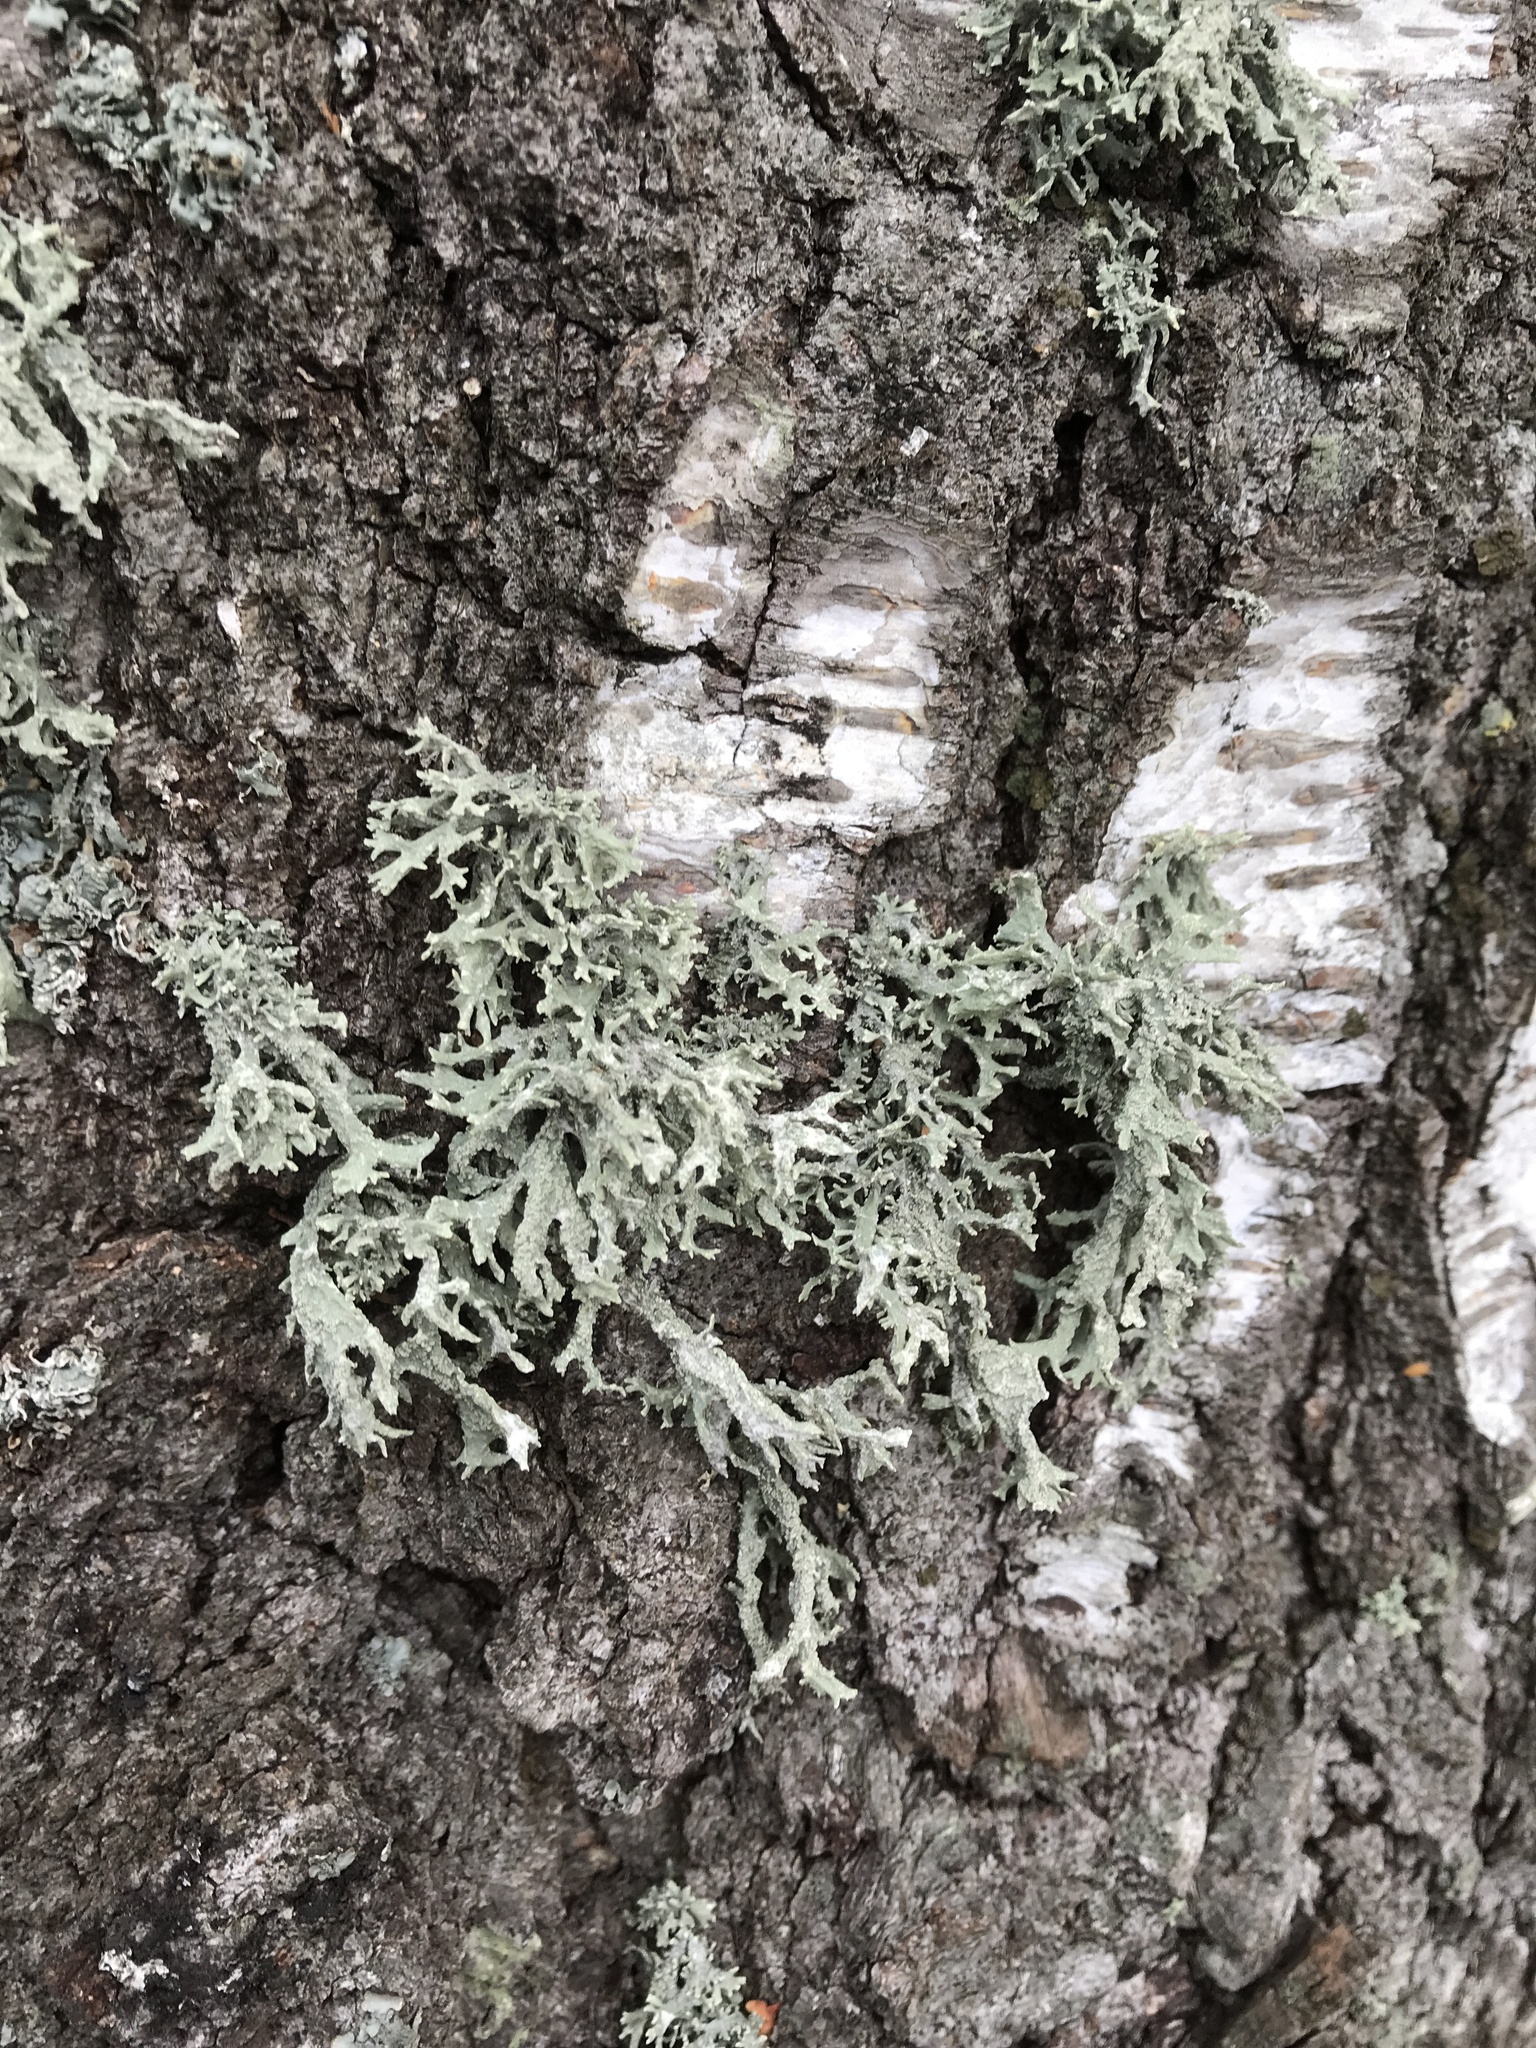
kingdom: Fungi
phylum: Ascomycota
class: Lecanoromycetes
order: Lecanorales
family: Parmeliaceae
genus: Evernia
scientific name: Evernia prunastri
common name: Oak moss
